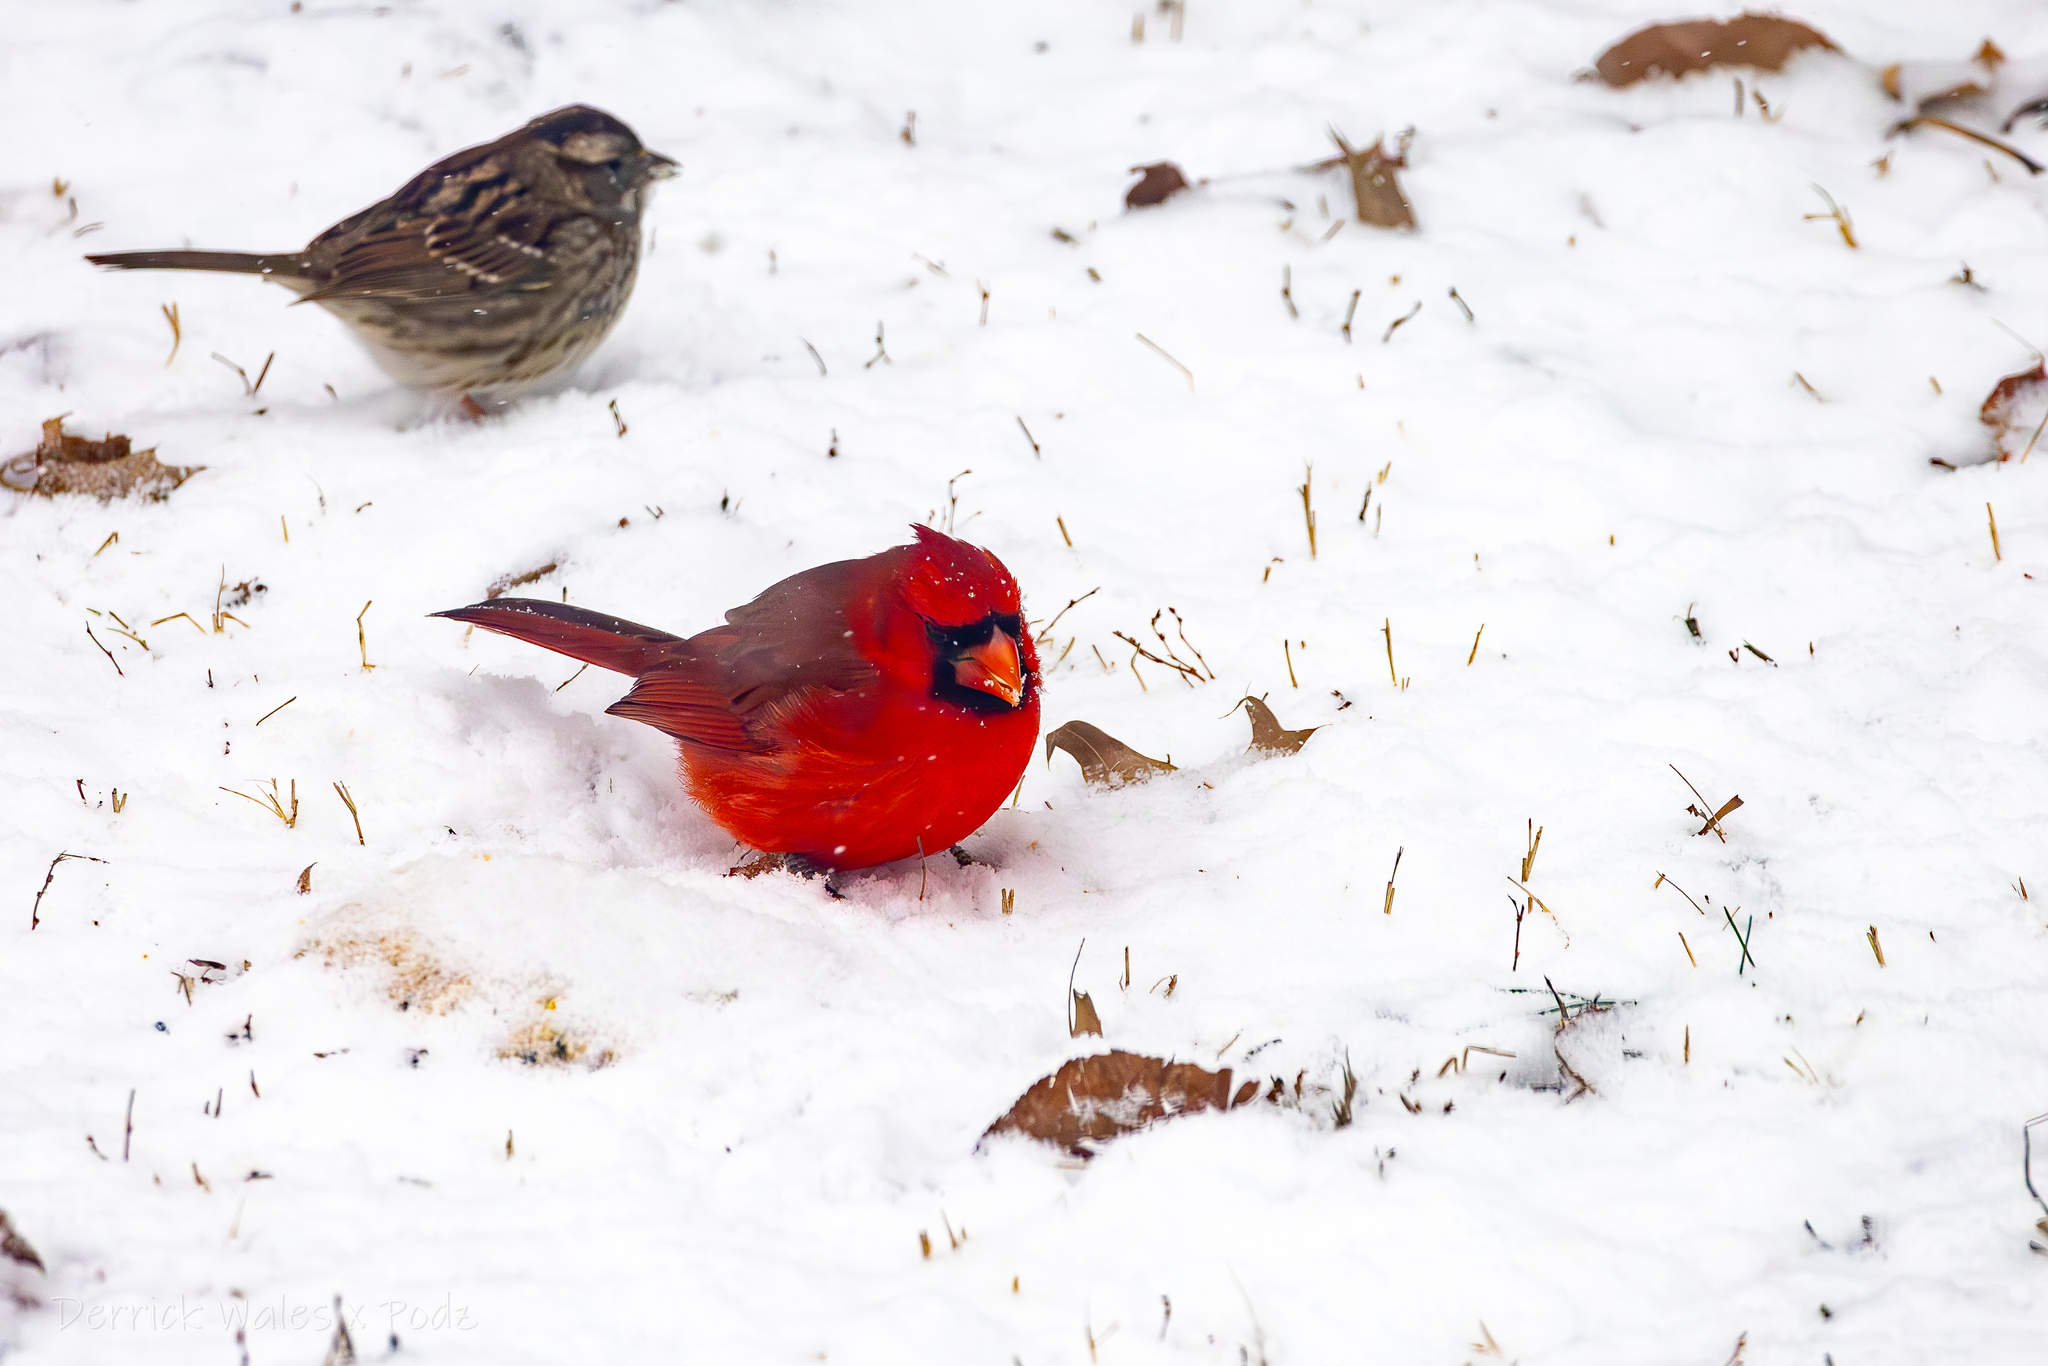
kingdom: Animalia
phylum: Chordata
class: Aves
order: Passeriformes
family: Cardinalidae
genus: Cardinalis
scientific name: Cardinalis cardinalis
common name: Northern cardinal
